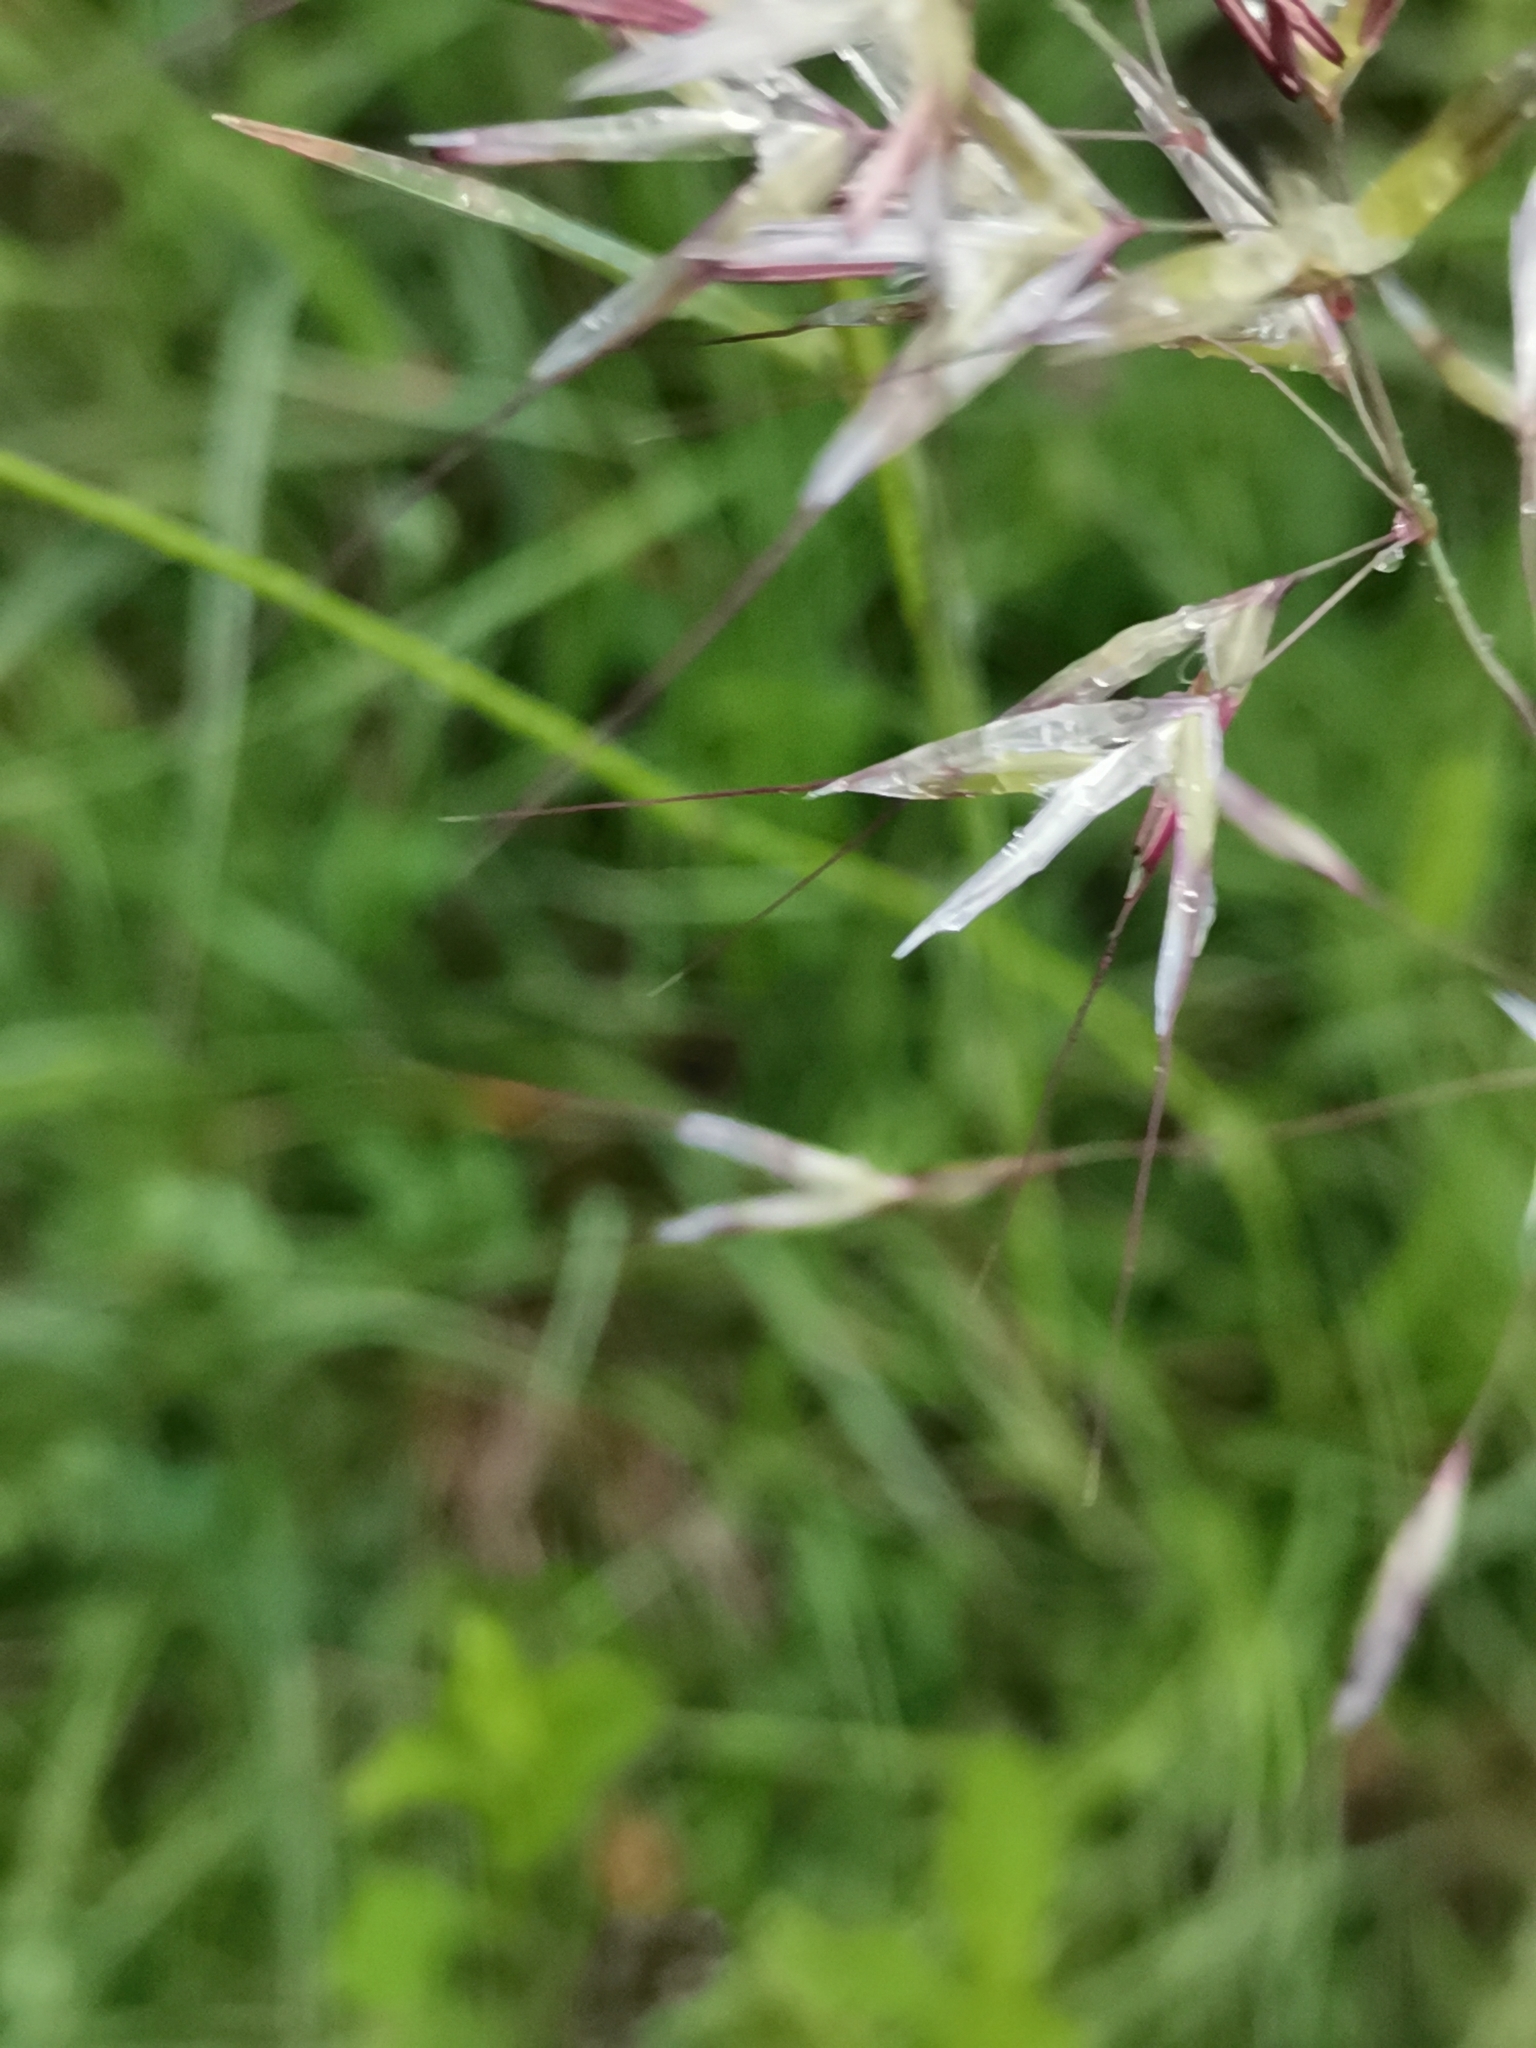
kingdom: Plantae
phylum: Tracheophyta
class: Liliopsida
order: Poales
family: Poaceae
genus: Avenula
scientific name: Avenula pubescens
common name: Downy alpine oatgrass
